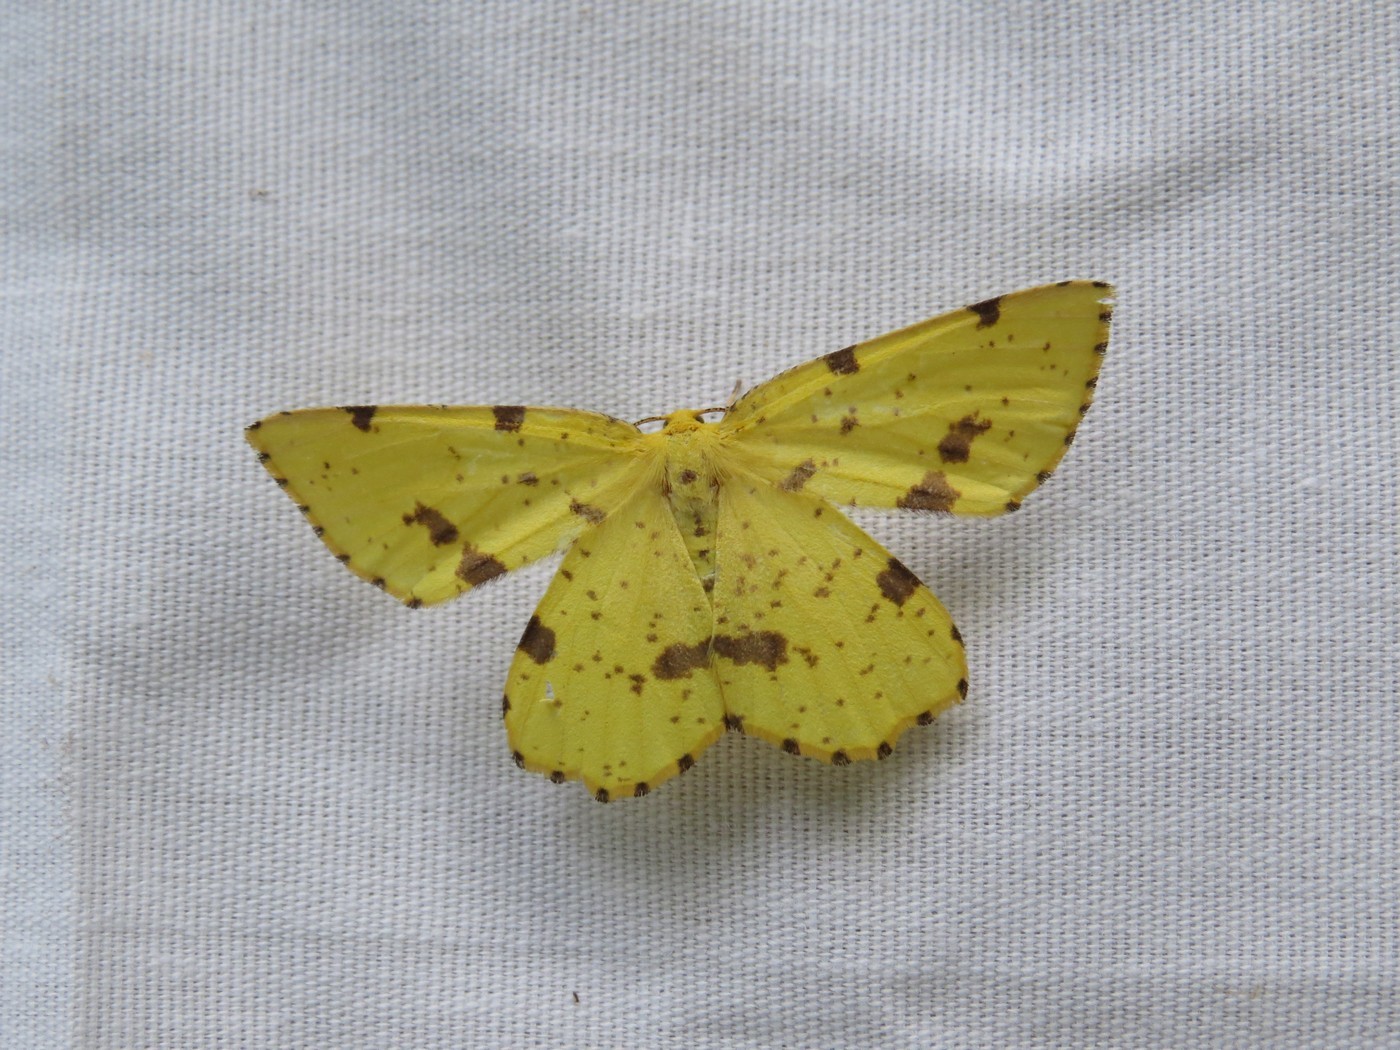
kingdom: Animalia
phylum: Arthropoda
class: Insecta
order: Lepidoptera
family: Geometridae
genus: Xanthotype
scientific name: Xanthotype
